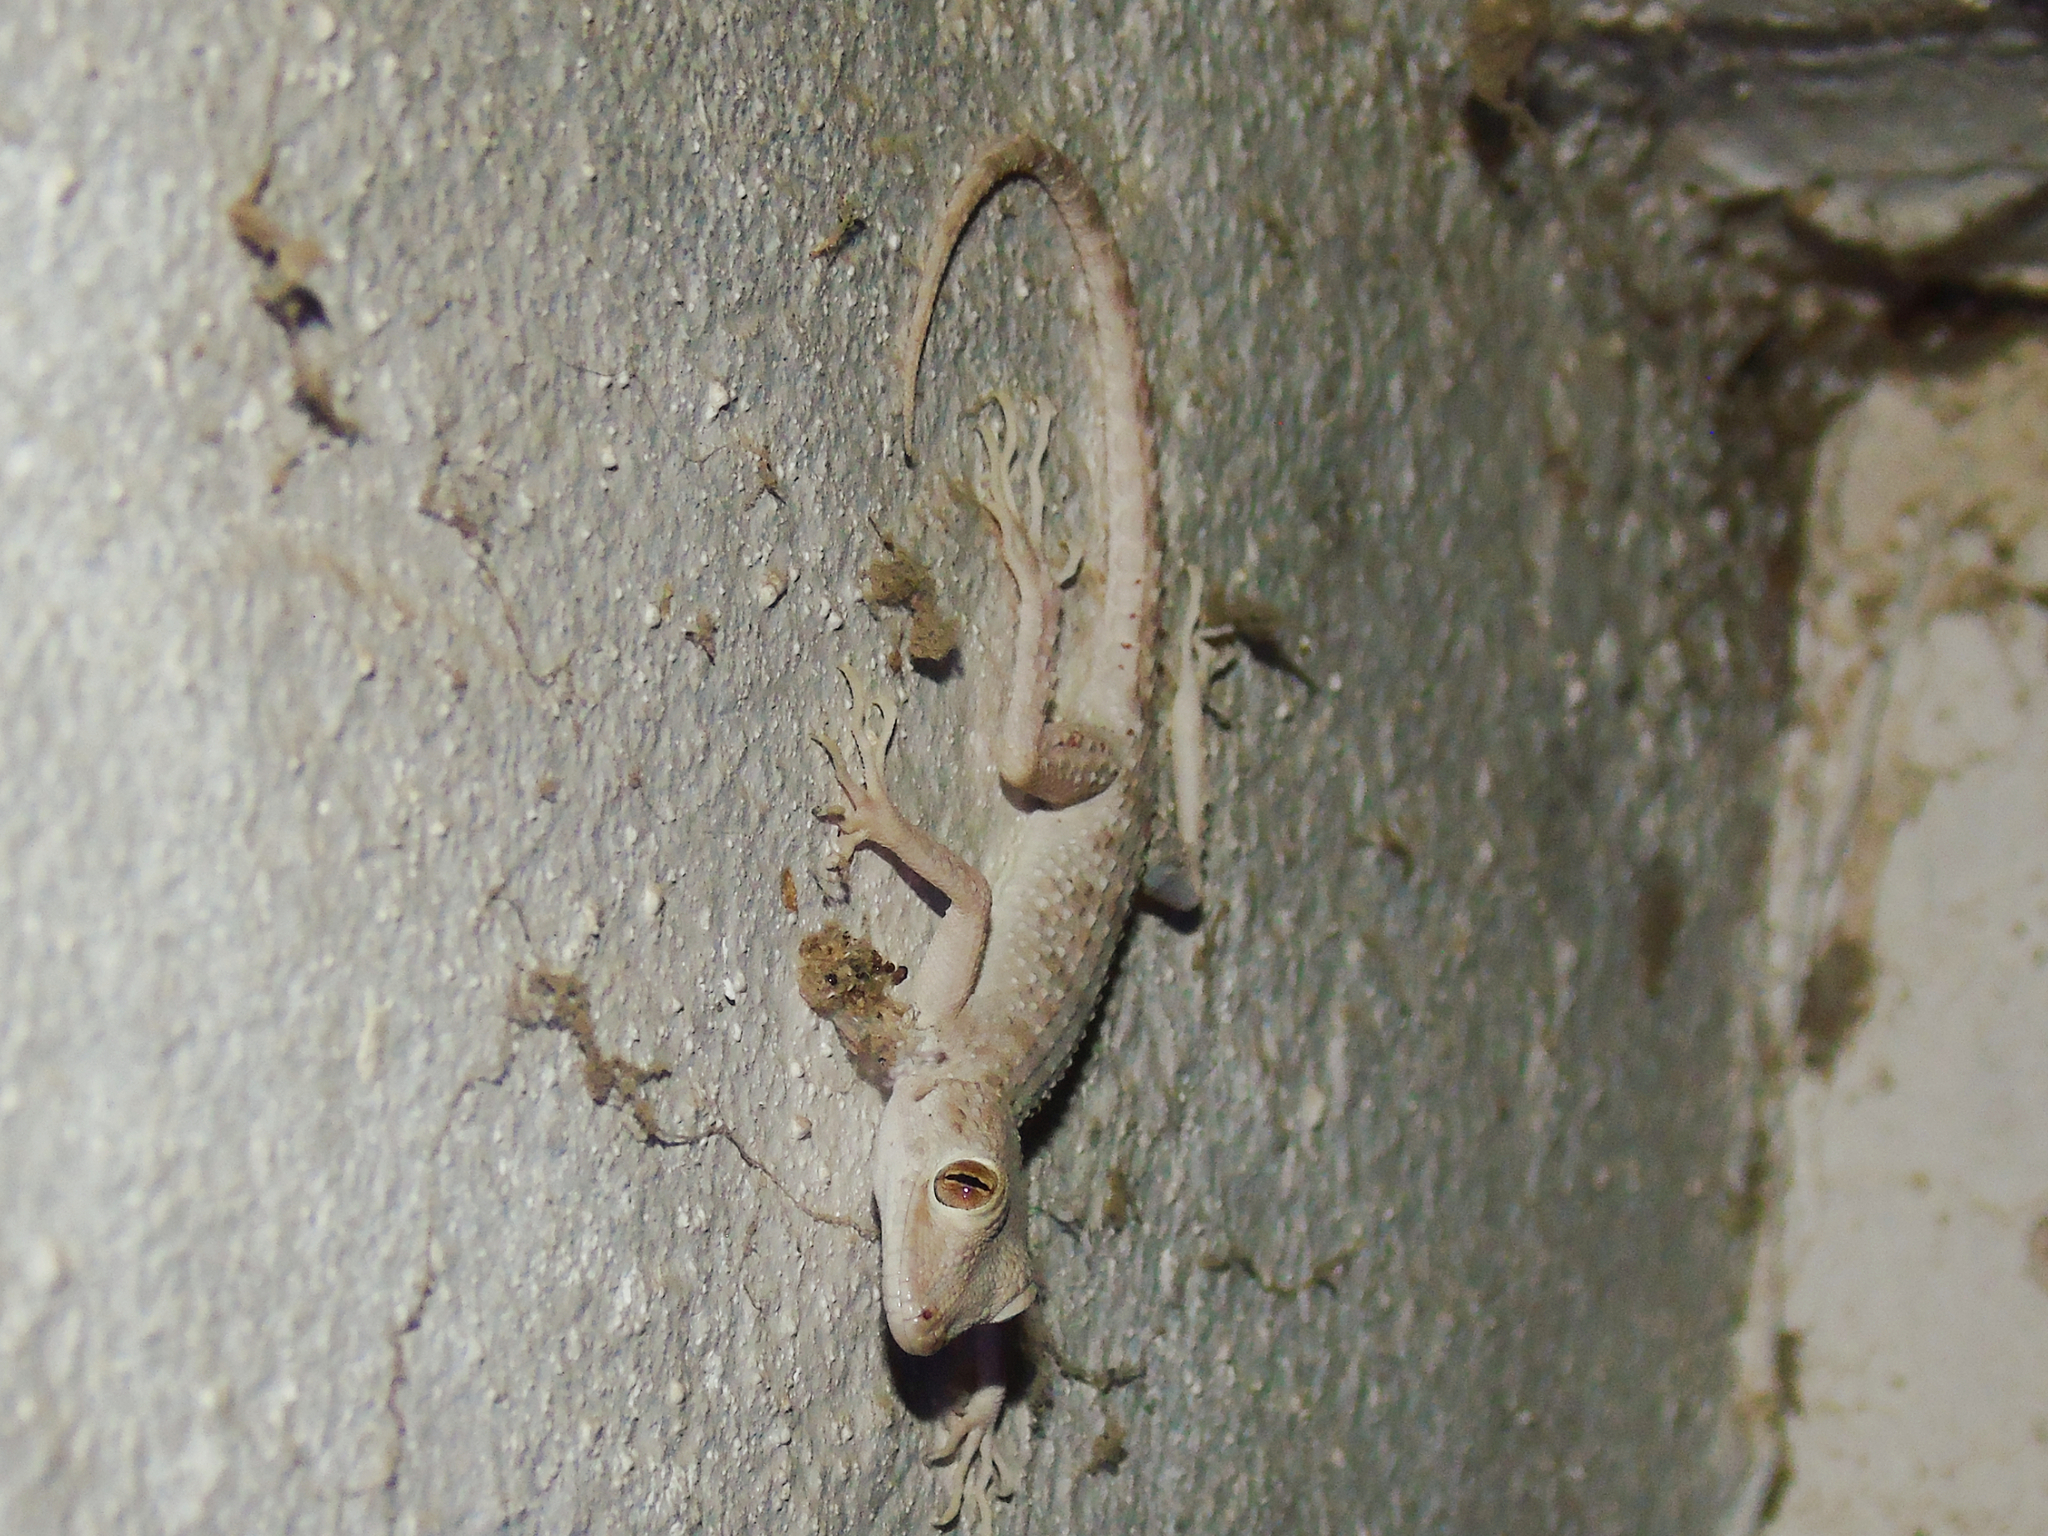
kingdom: Animalia
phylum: Chordata
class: Squamata
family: Gekkonidae
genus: Tenuidactylus
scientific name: Tenuidactylus bogdanovi
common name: Bogdanov’s thin-toed gecko
